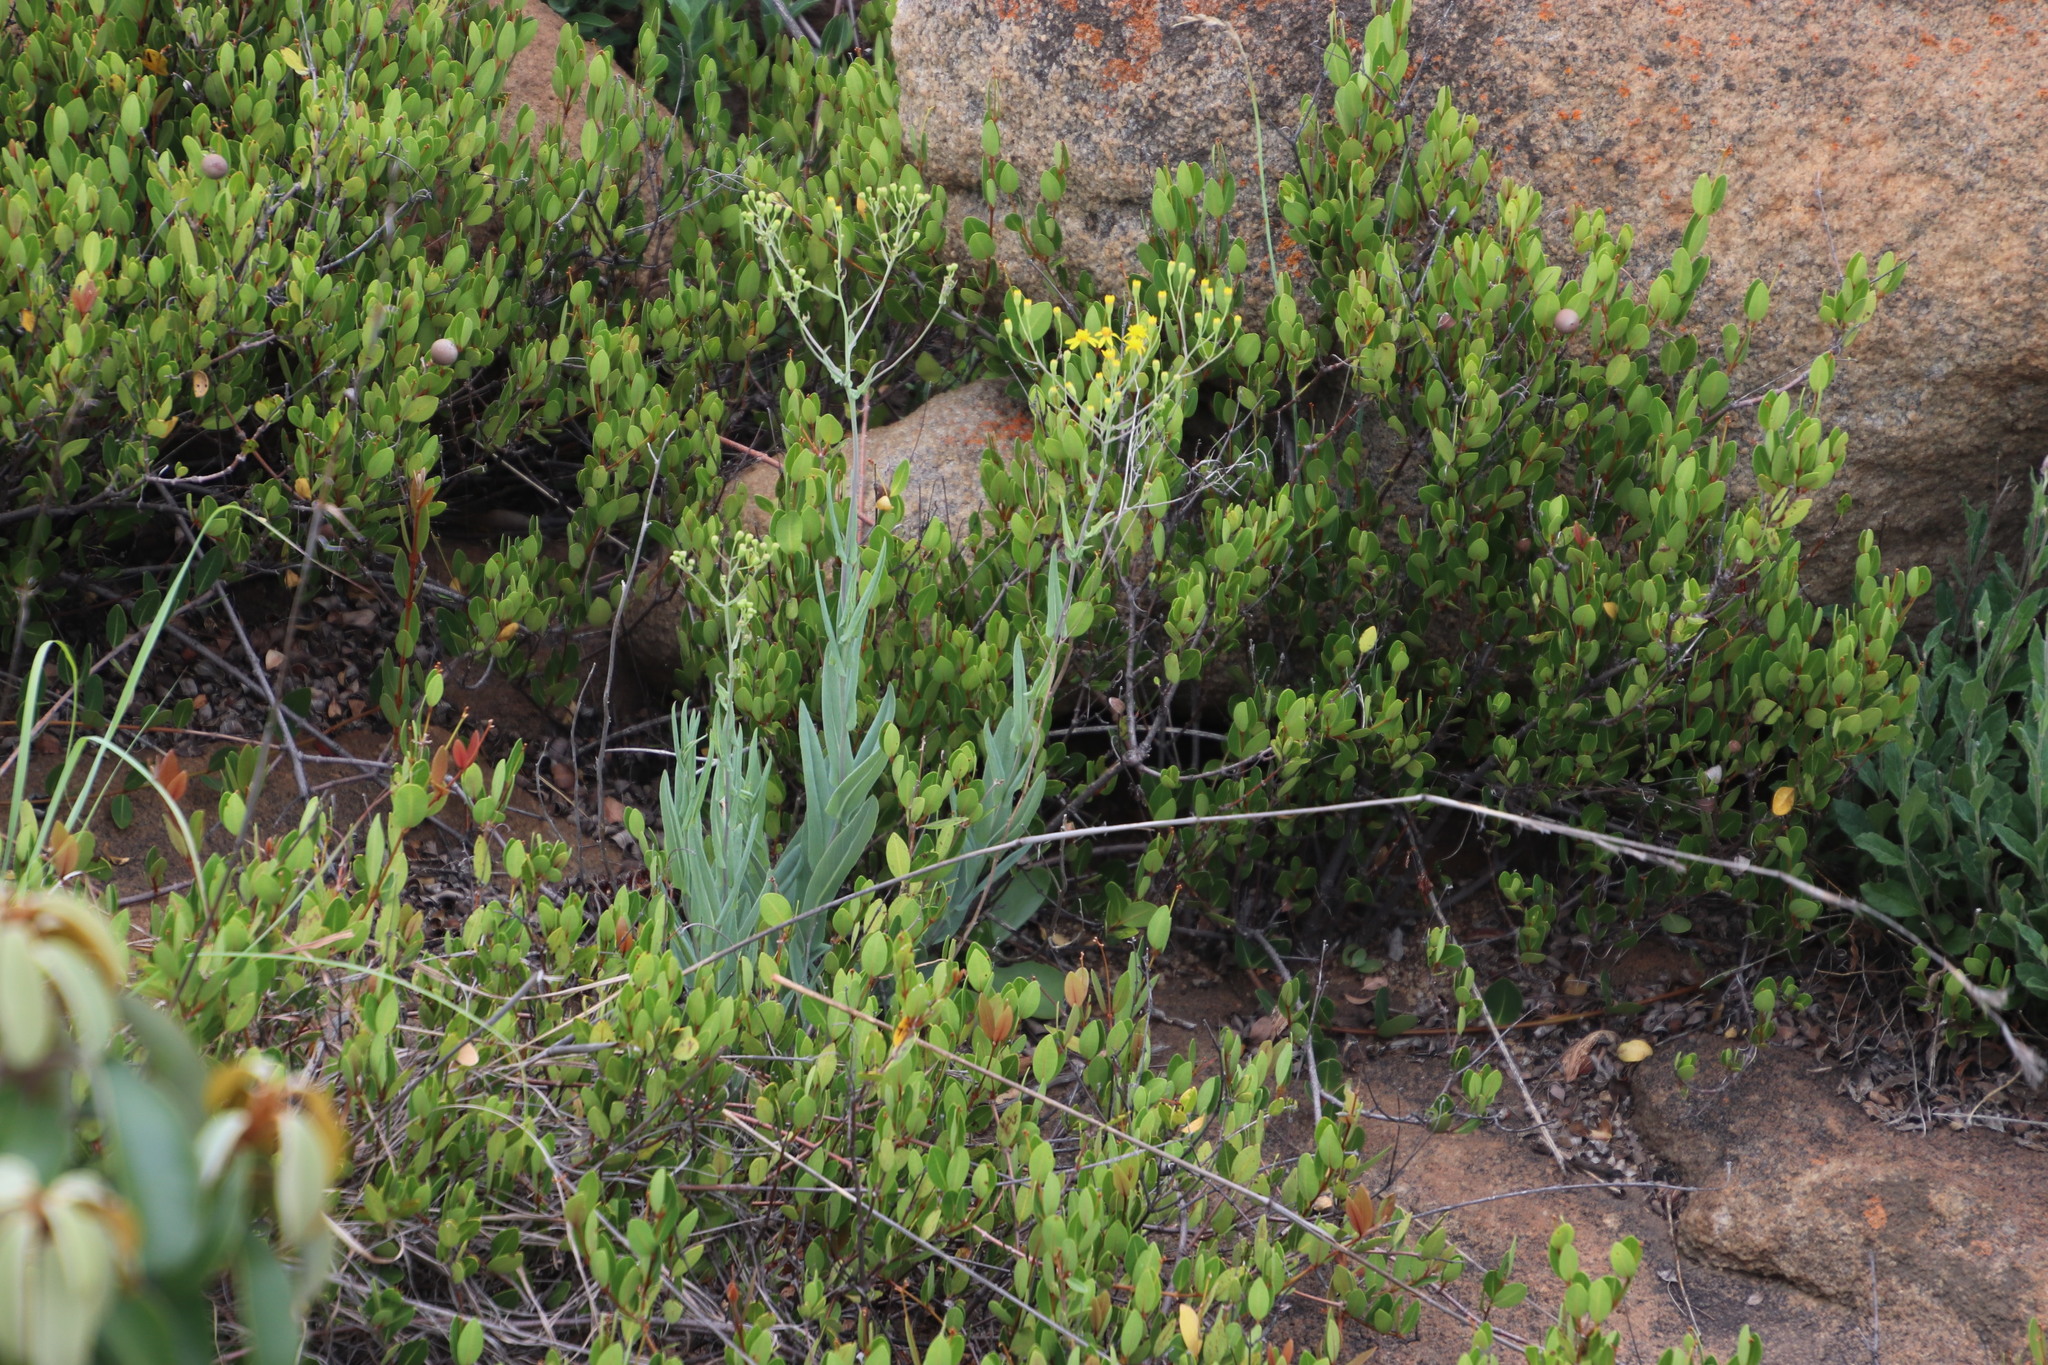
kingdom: Plantae
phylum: Tracheophyta
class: Magnoliopsida
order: Asterales
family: Asteraceae
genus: Senecio
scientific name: Senecio venosus
